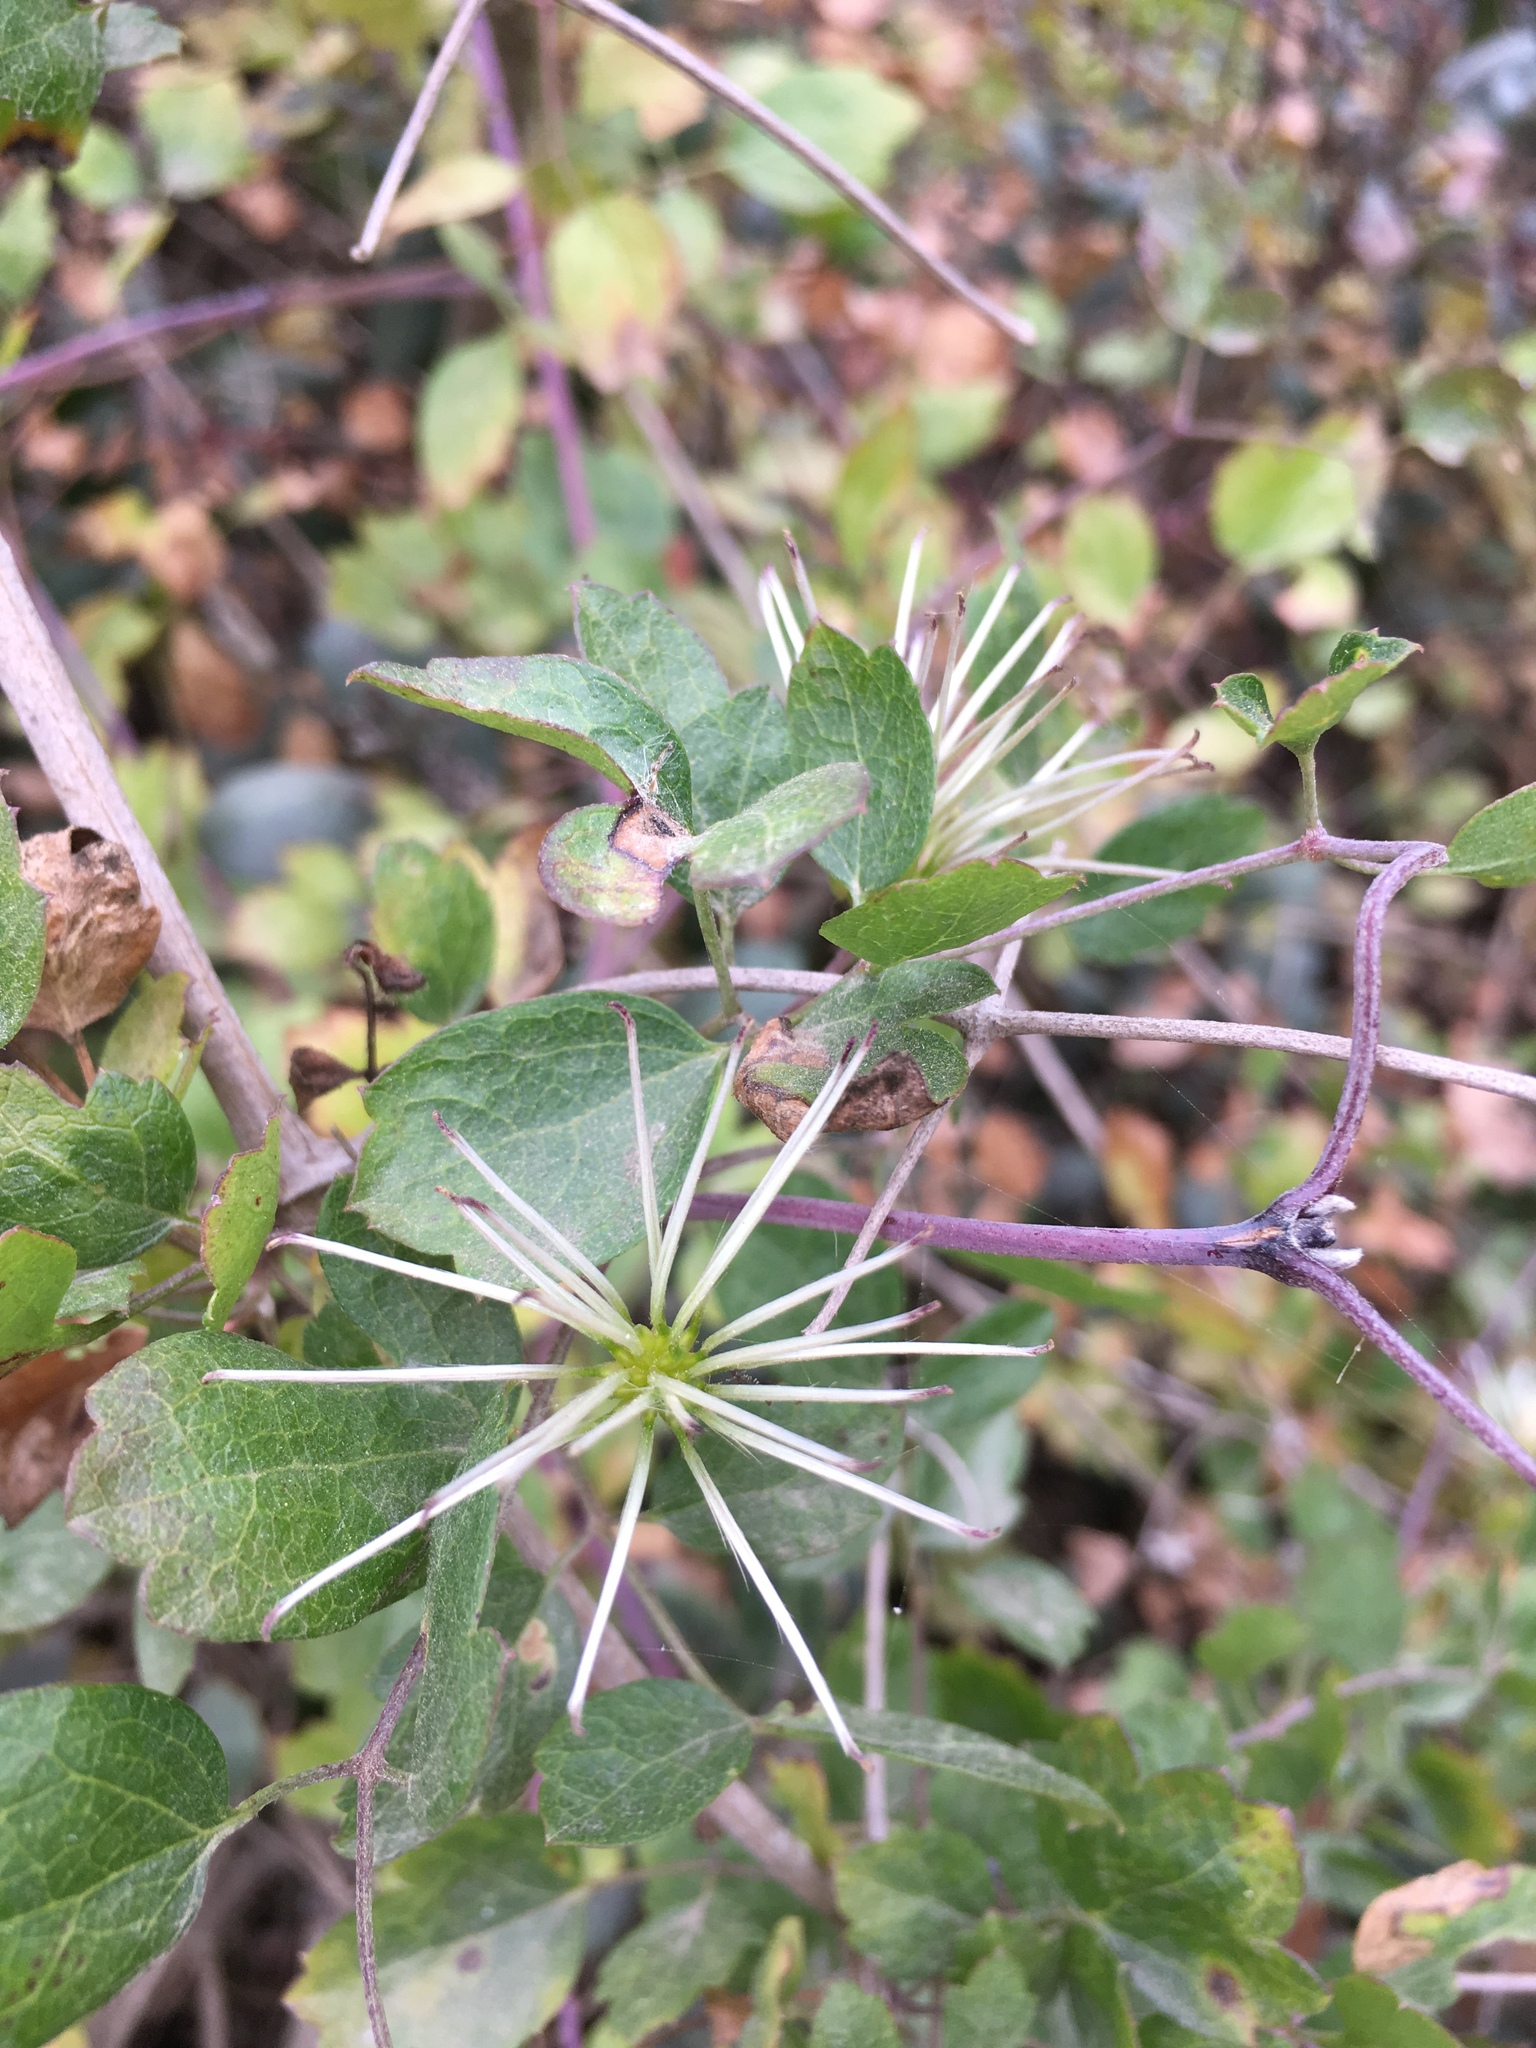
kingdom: Plantae
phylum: Tracheophyta
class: Magnoliopsida
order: Ranunculales
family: Ranunculaceae
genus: Clematis
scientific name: Clematis pauciflora
